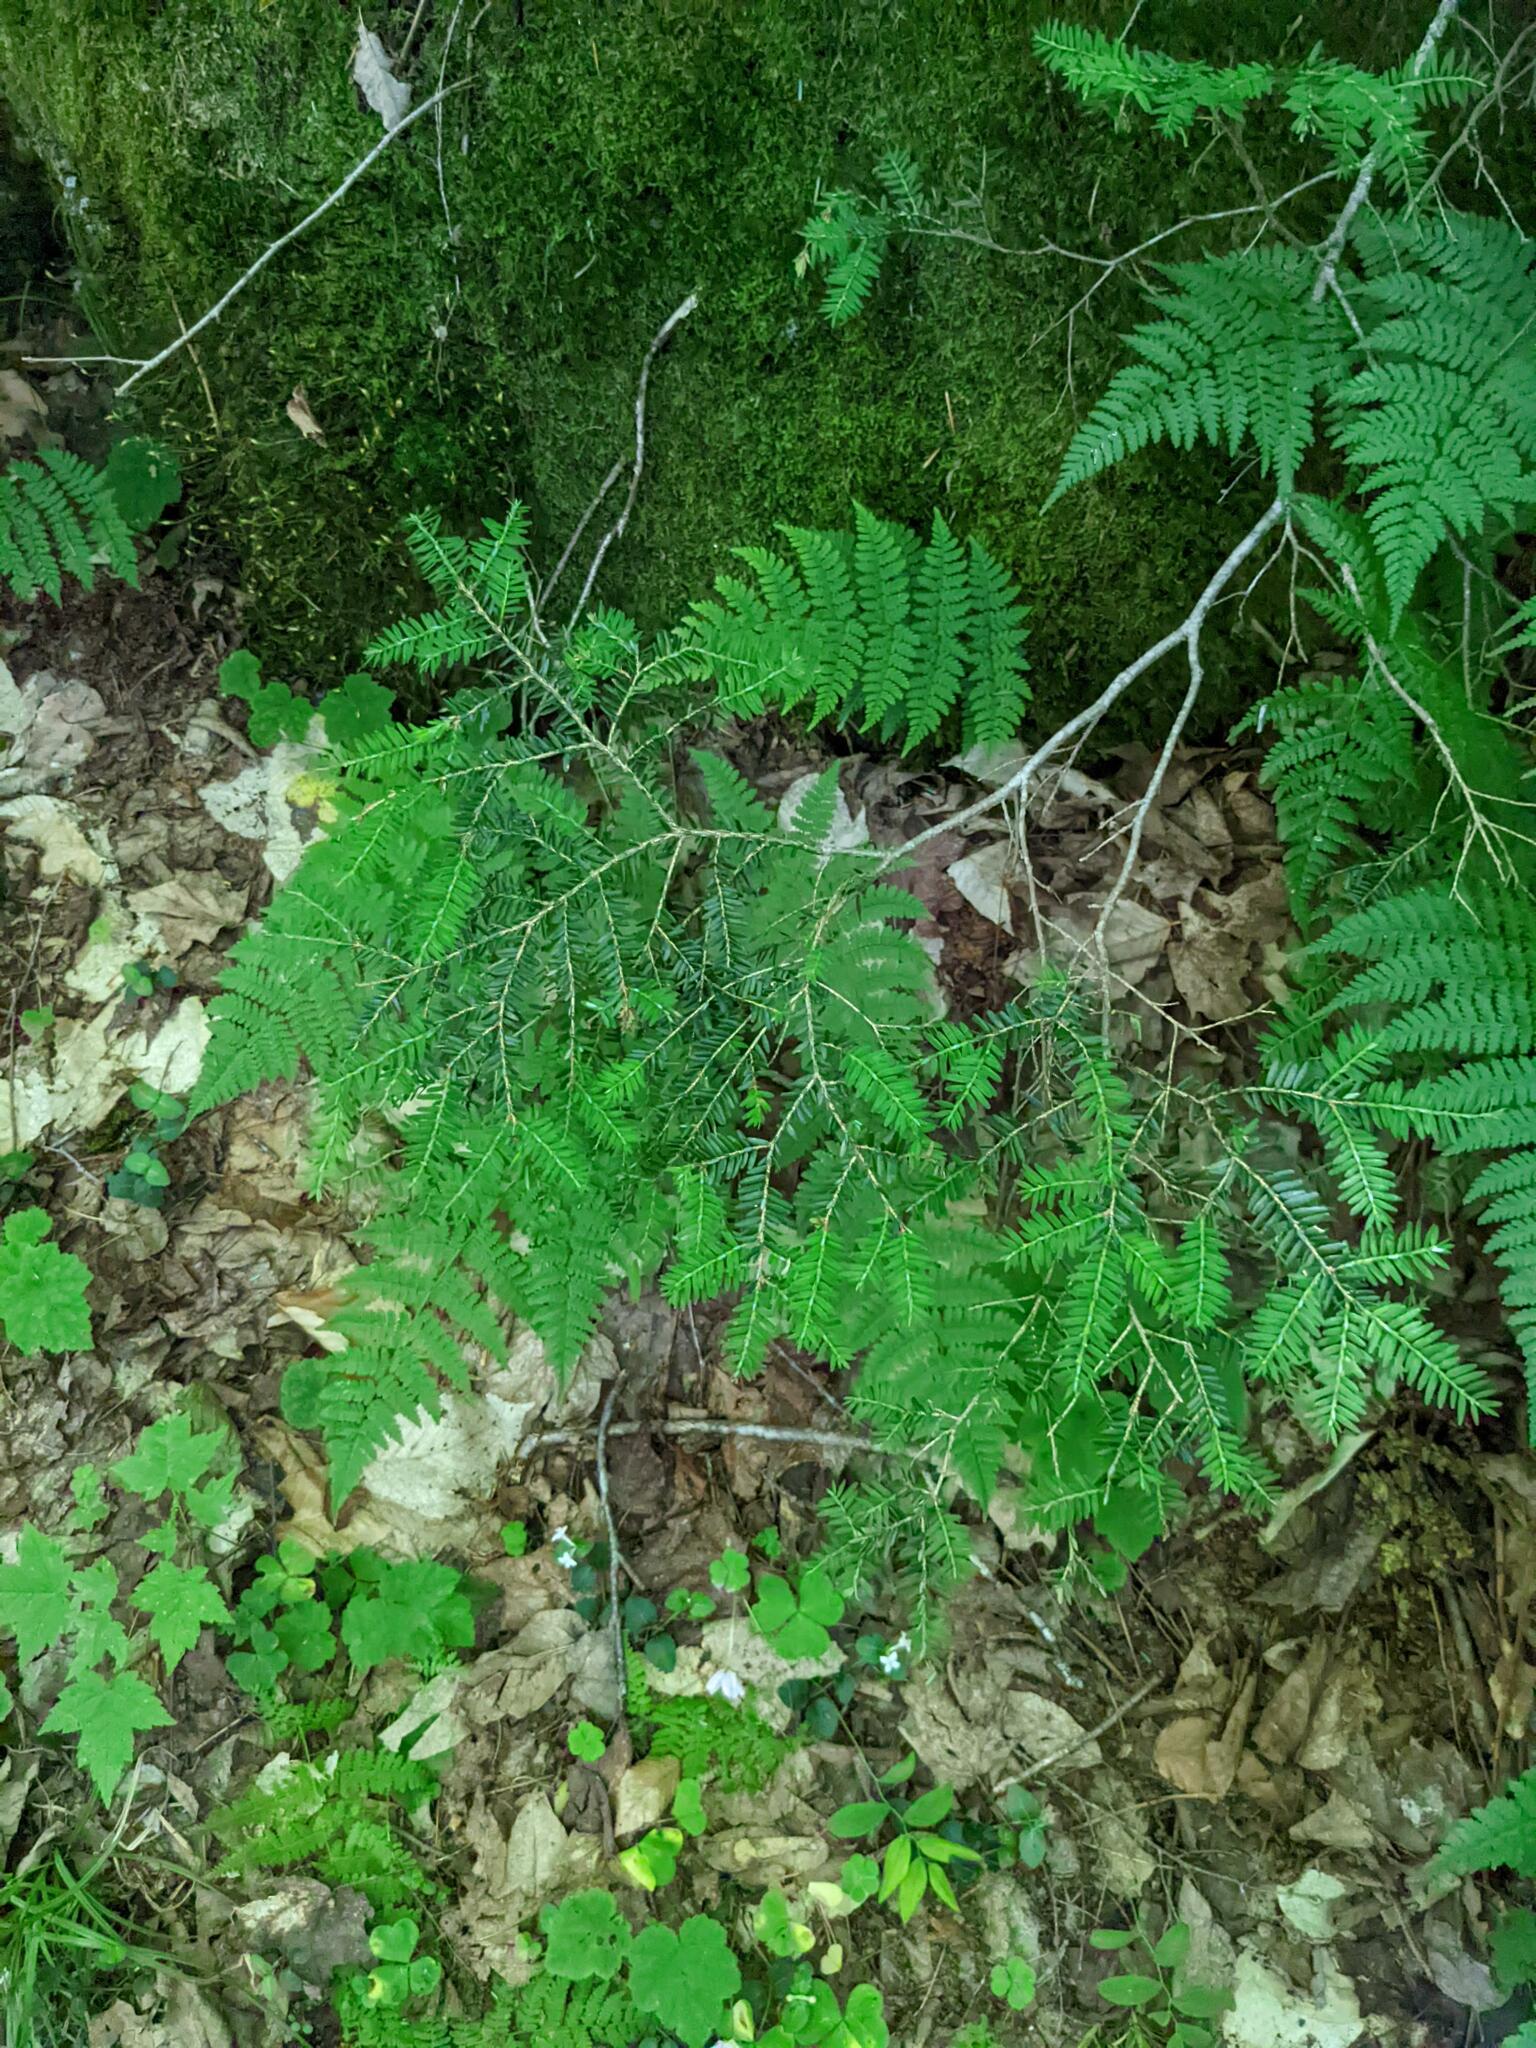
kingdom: Plantae
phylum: Tracheophyta
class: Pinopsida
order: Pinales
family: Pinaceae
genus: Tsuga
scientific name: Tsuga canadensis
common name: Eastern hemlock
